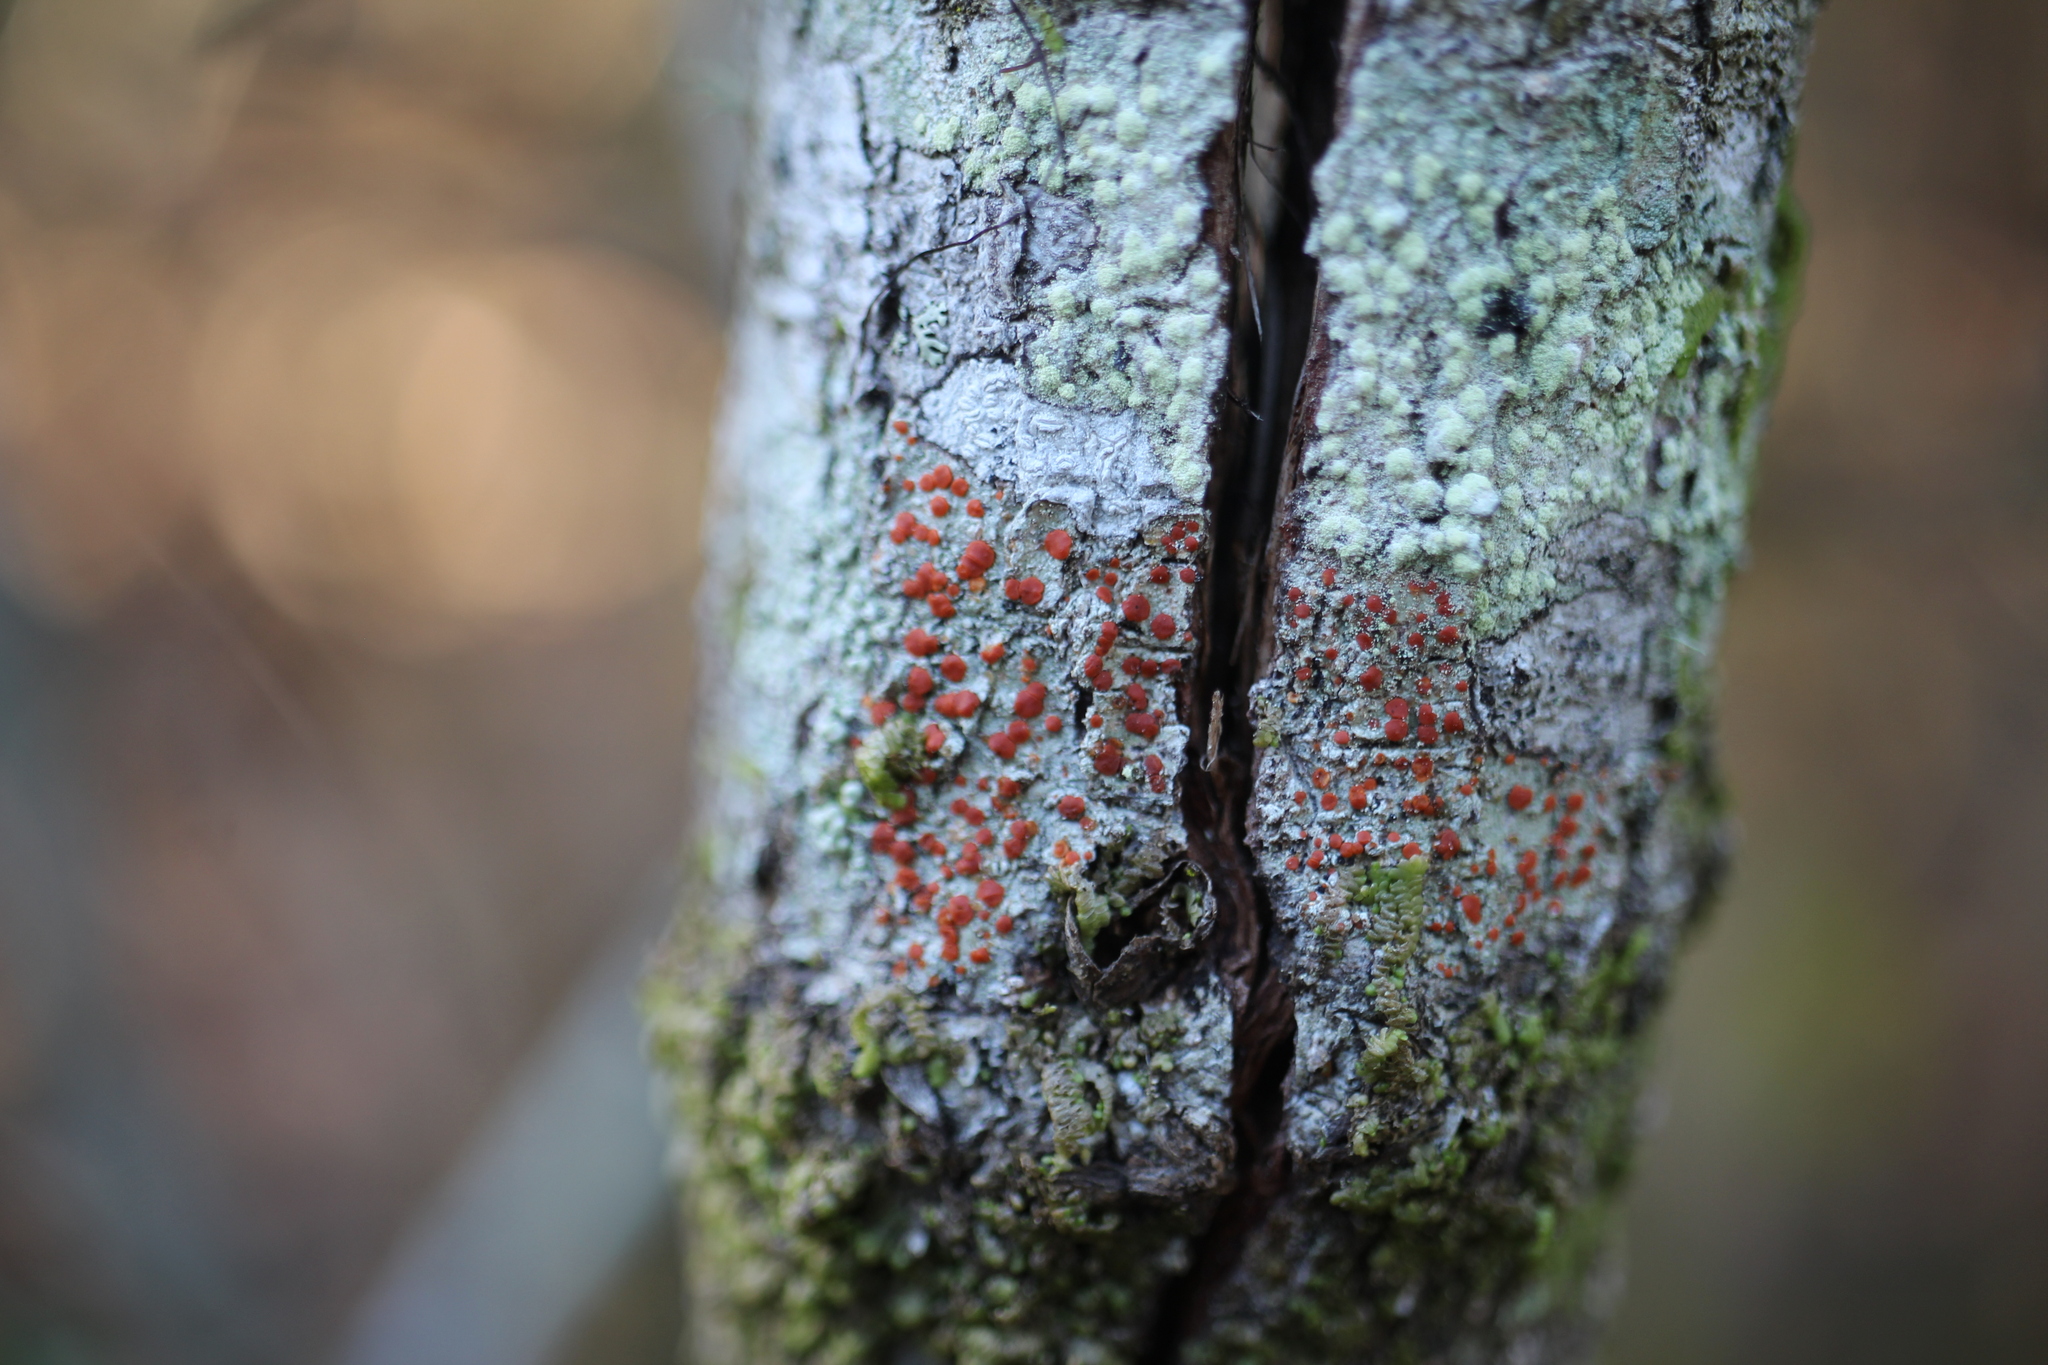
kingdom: Fungi
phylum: Ascomycota
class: Lecanoromycetes
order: Lecanorales
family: Ramboldiaceae
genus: Ramboldia
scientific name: Ramboldia russula
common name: Red heads
